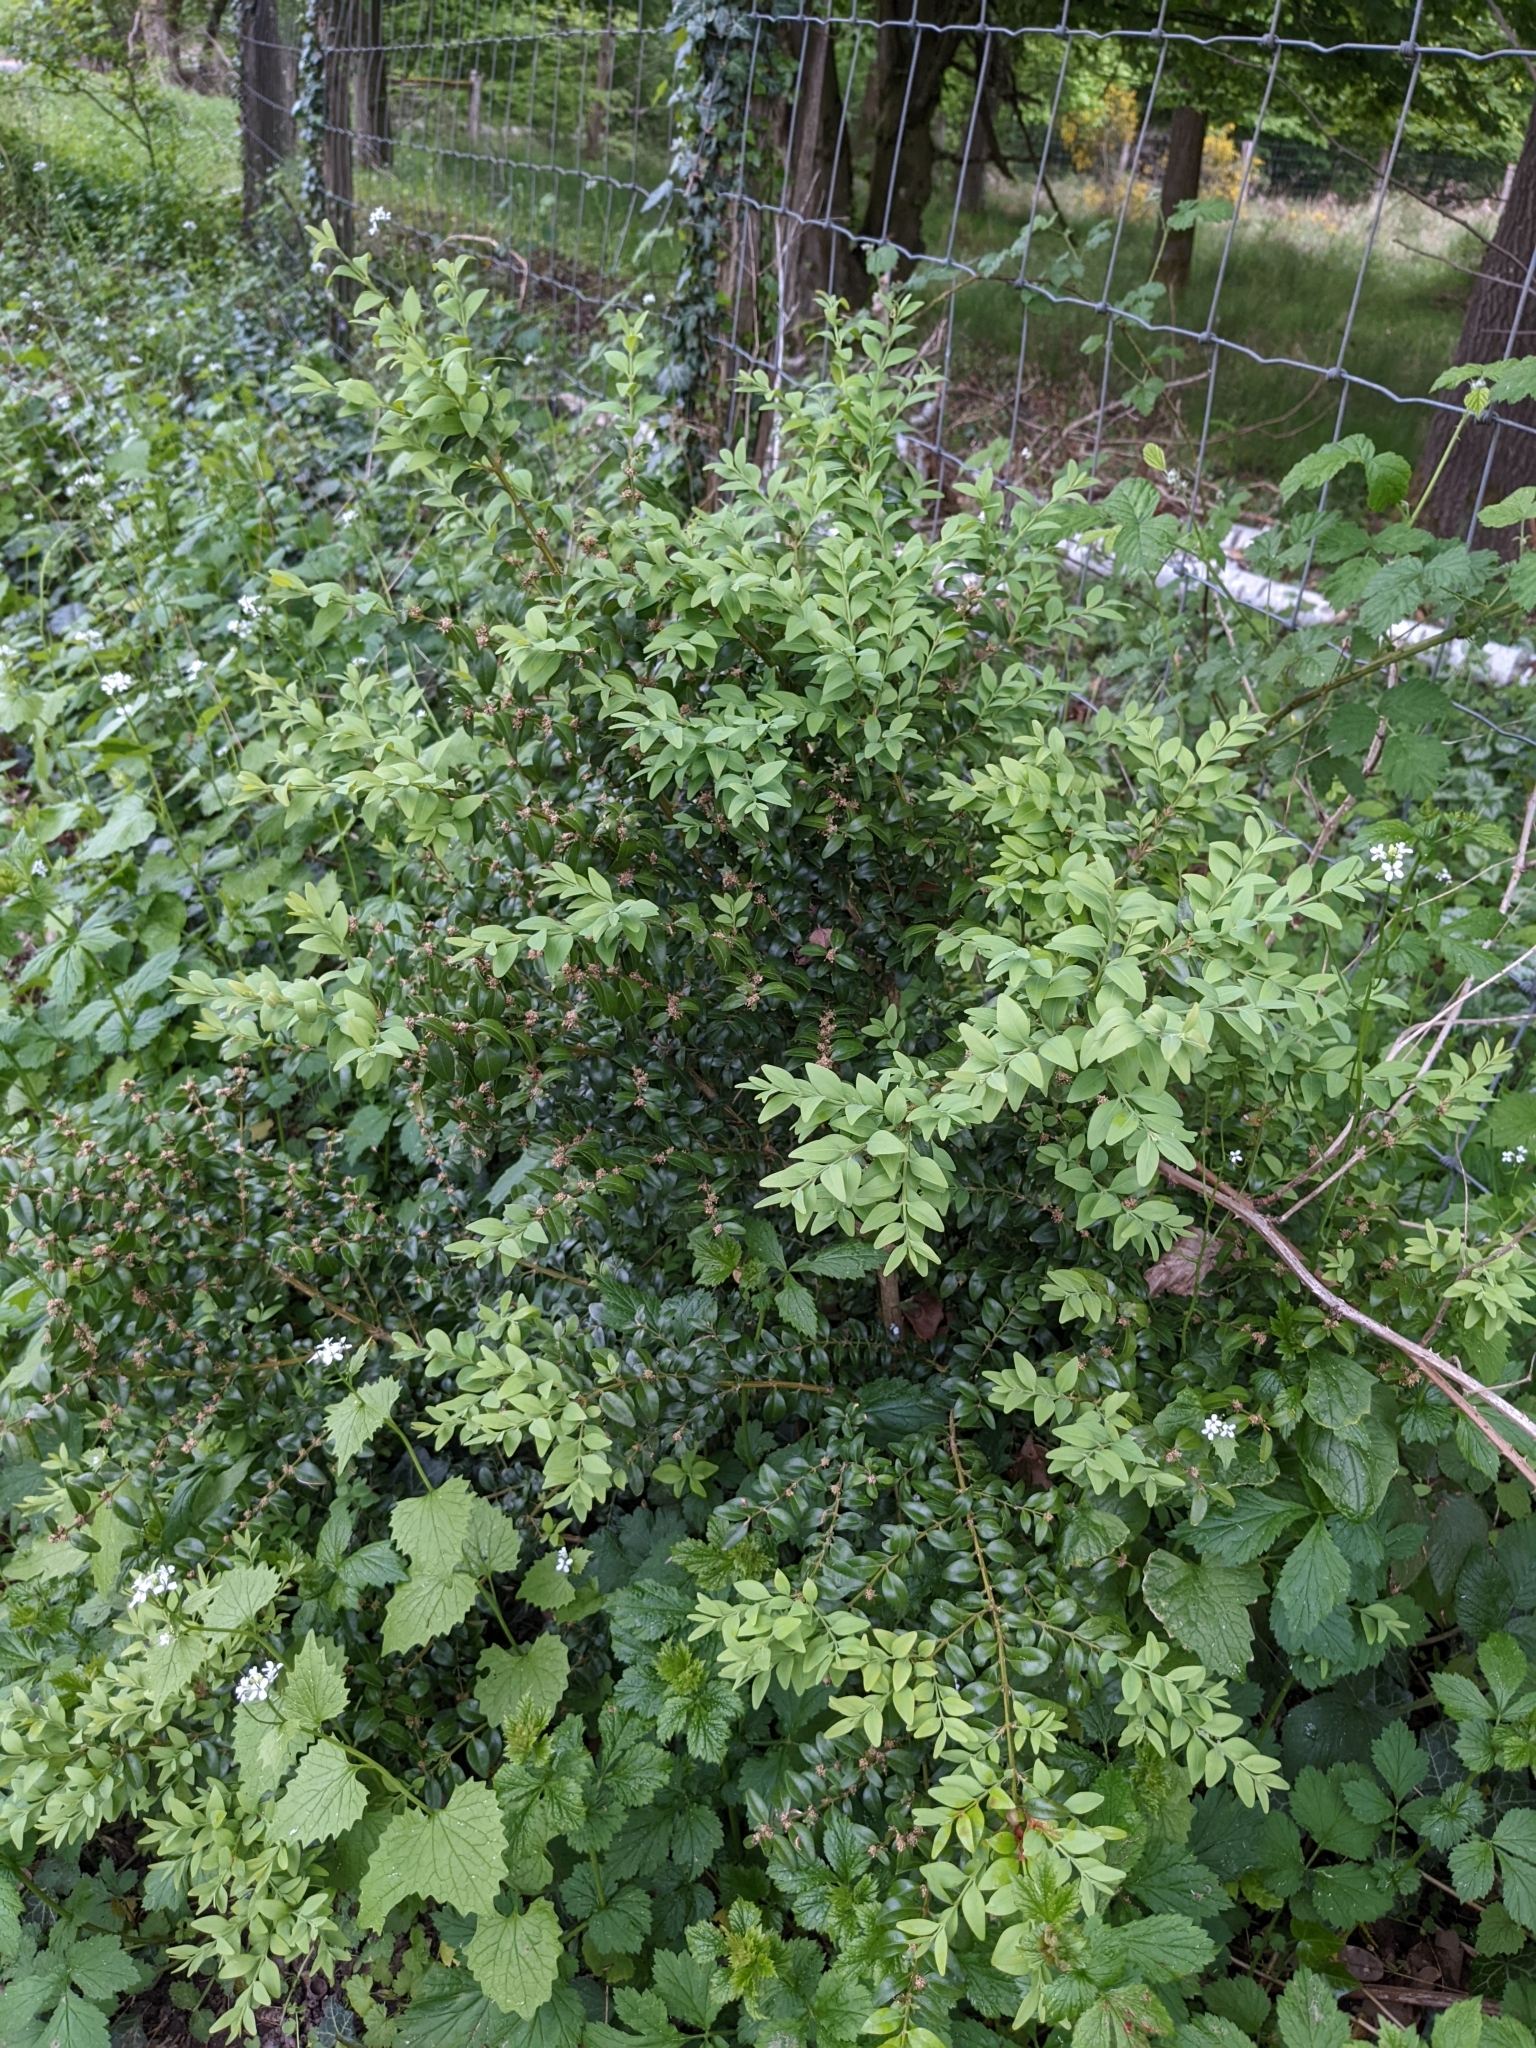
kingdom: Plantae
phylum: Tracheophyta
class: Magnoliopsida
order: Buxales
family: Buxaceae
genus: Buxus
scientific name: Buxus sempervirens
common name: Box
